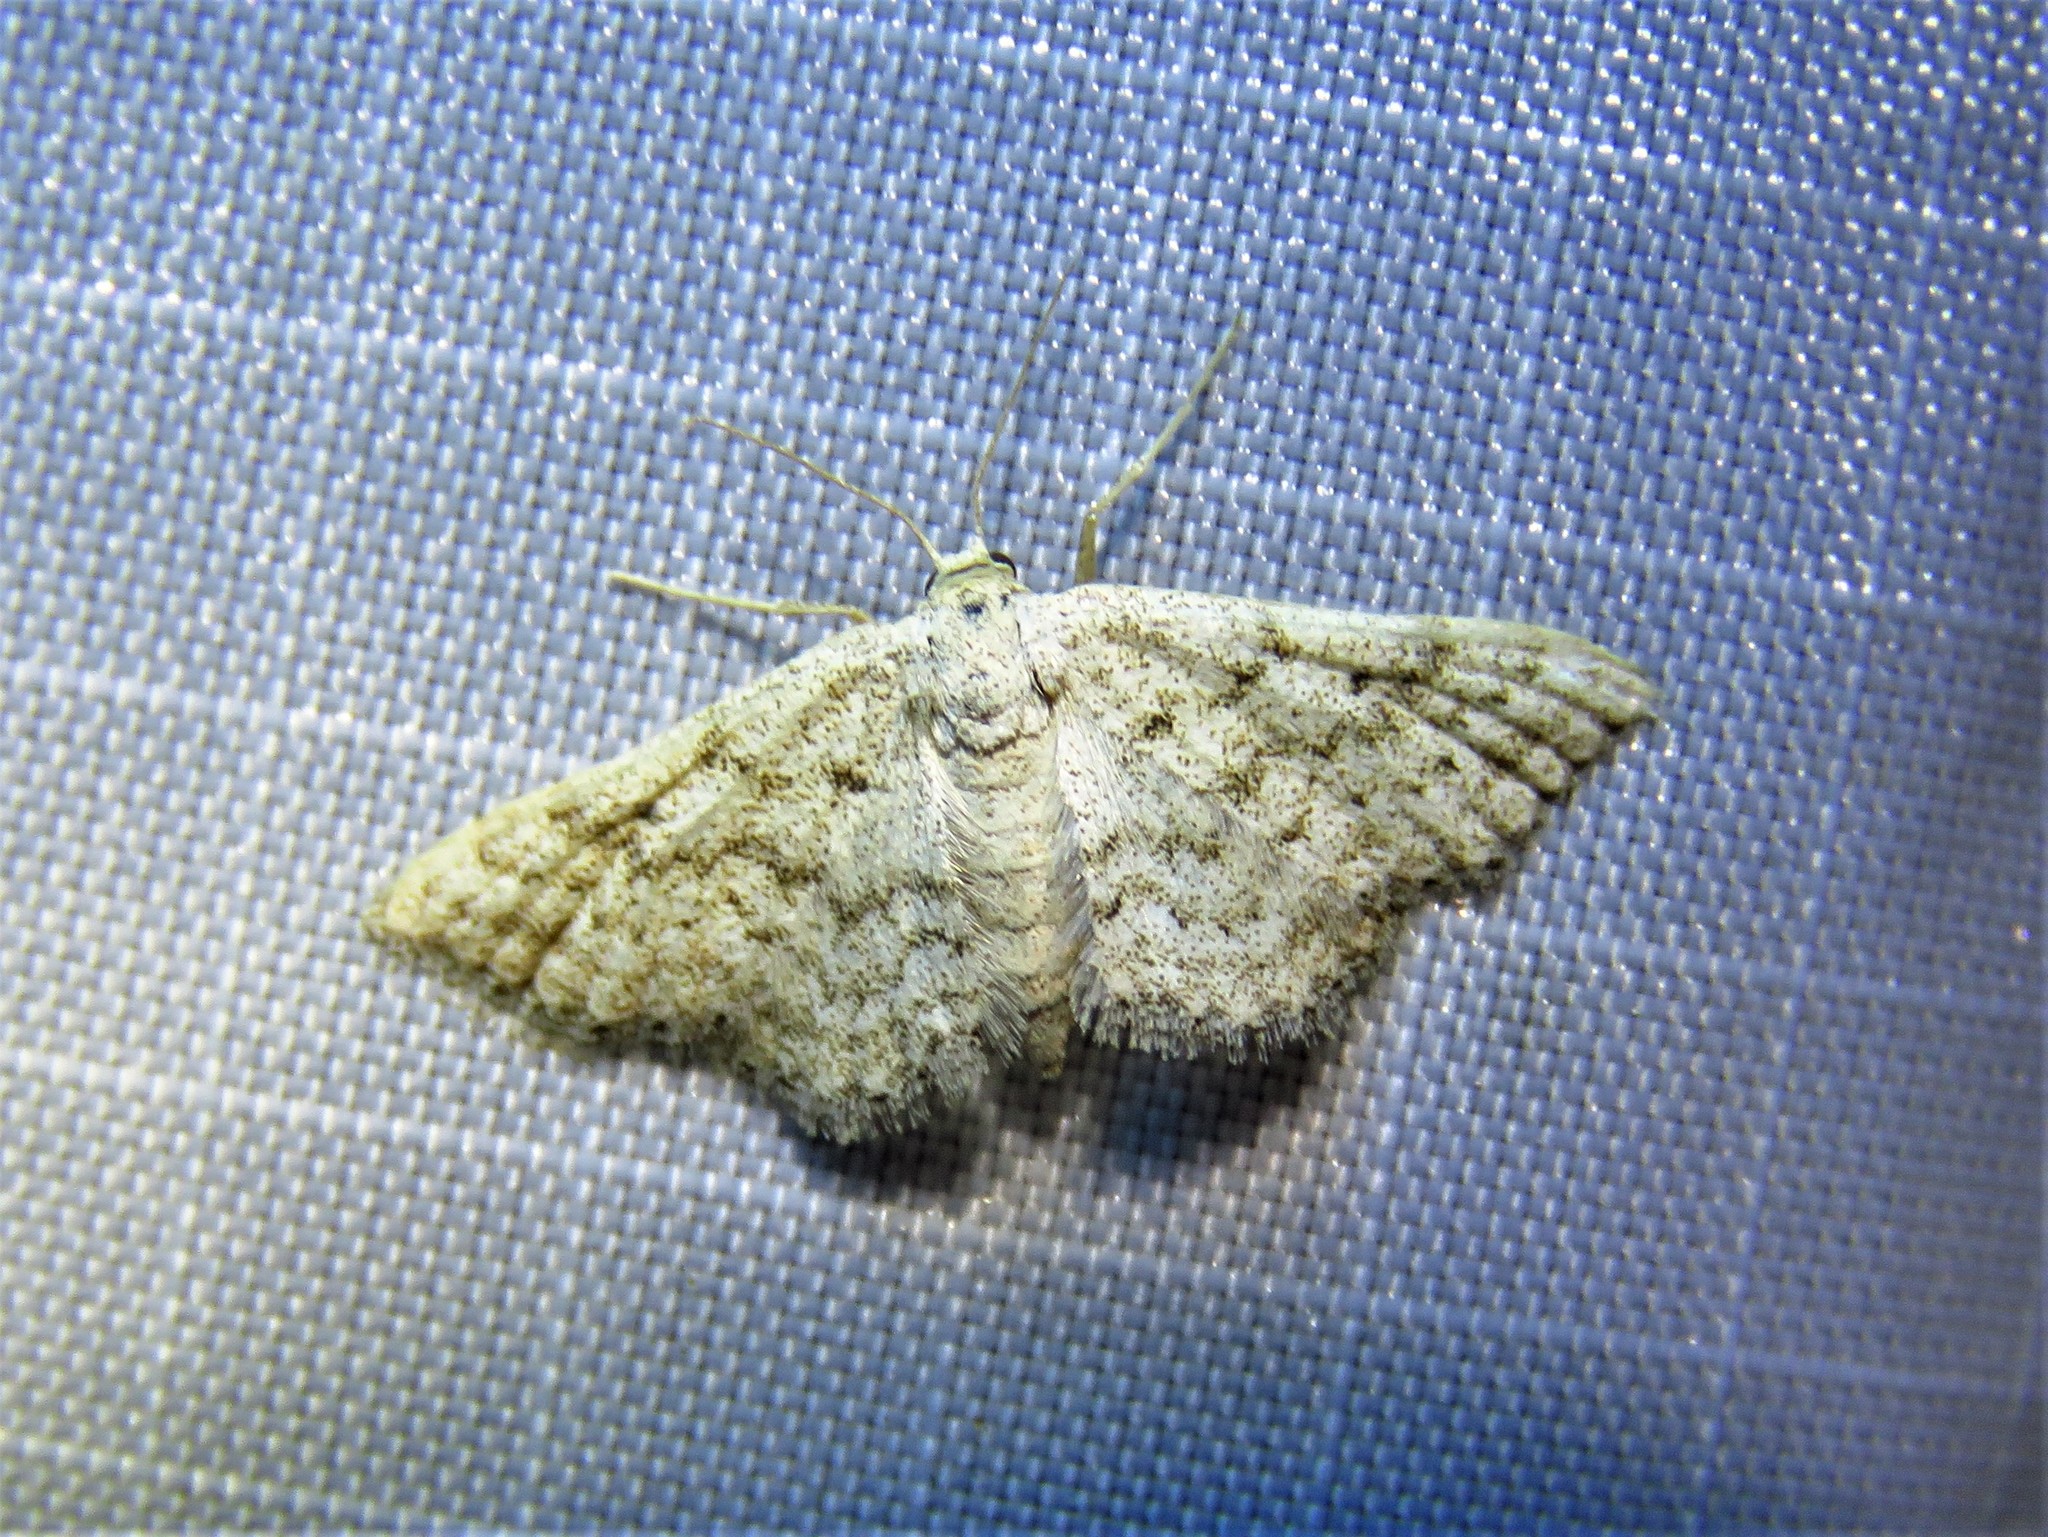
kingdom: Animalia
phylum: Arthropoda
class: Insecta
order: Lepidoptera
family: Geometridae
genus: Lobocleta
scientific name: Lobocleta ossularia
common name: Drab brown wave
